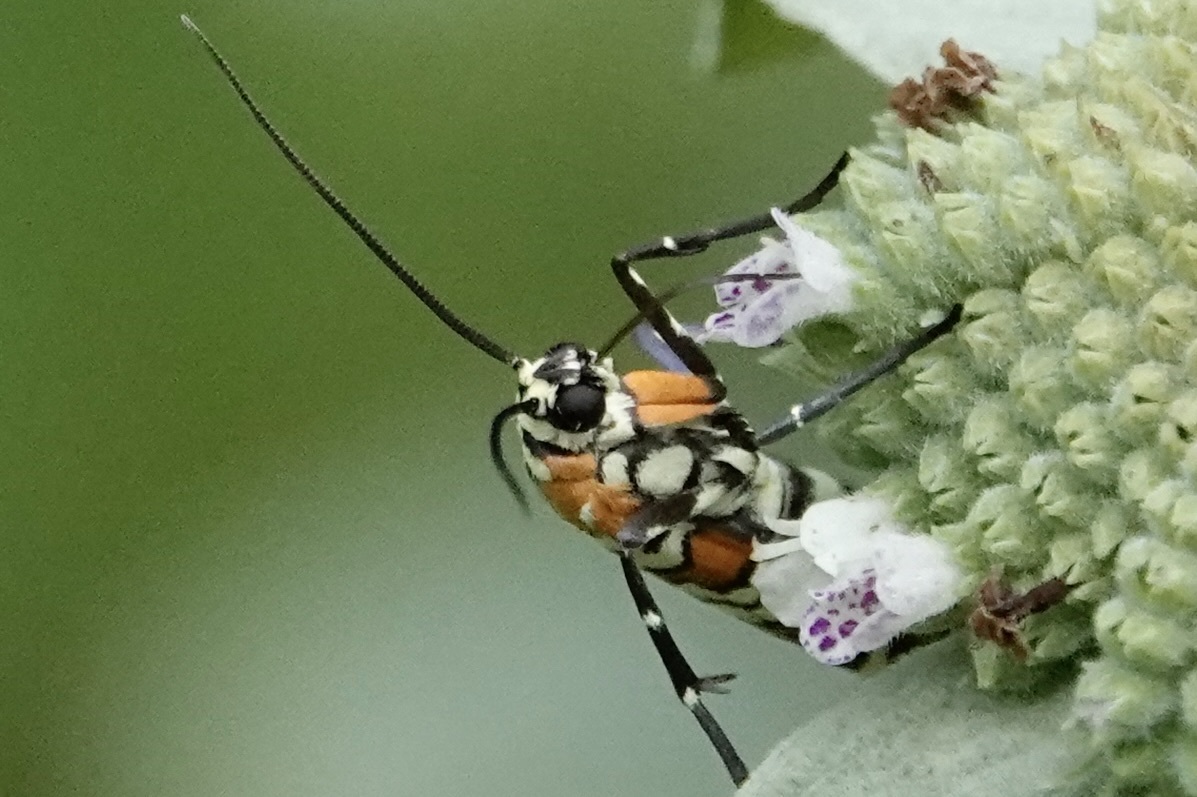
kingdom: Animalia
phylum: Arthropoda
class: Insecta
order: Lepidoptera
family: Attevidae
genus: Atteva
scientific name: Atteva punctella
